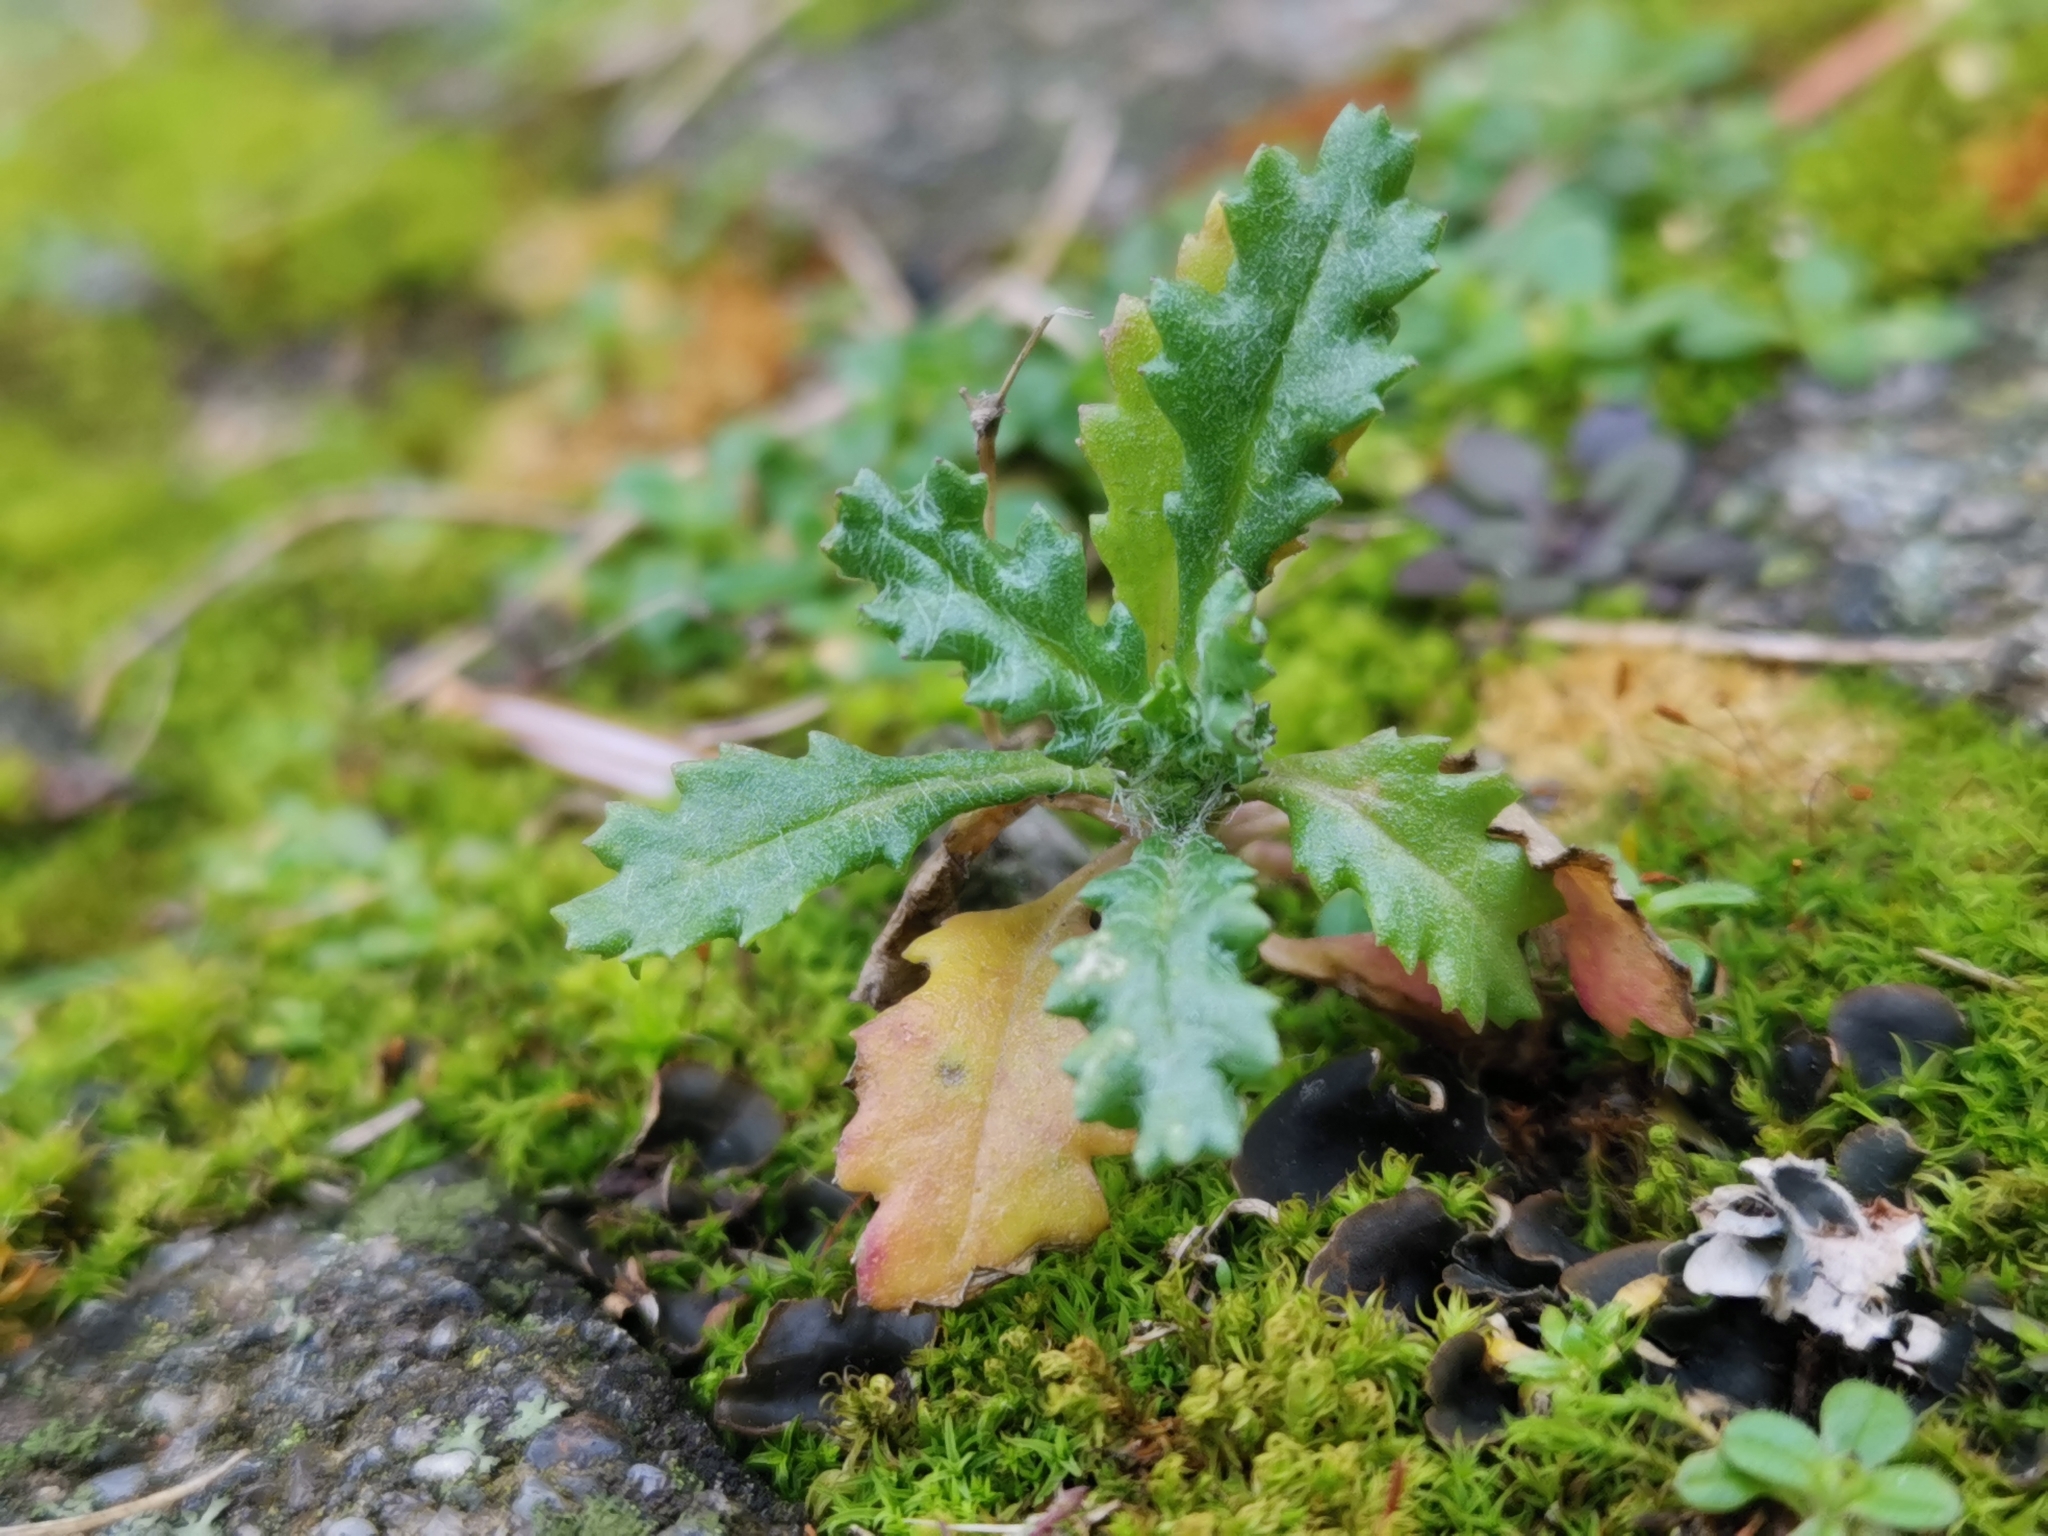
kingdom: Plantae
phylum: Tracheophyta
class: Magnoliopsida
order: Asterales
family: Asteraceae
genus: Senecio
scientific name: Senecio vulgaris
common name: Old-man-in-the-spring
